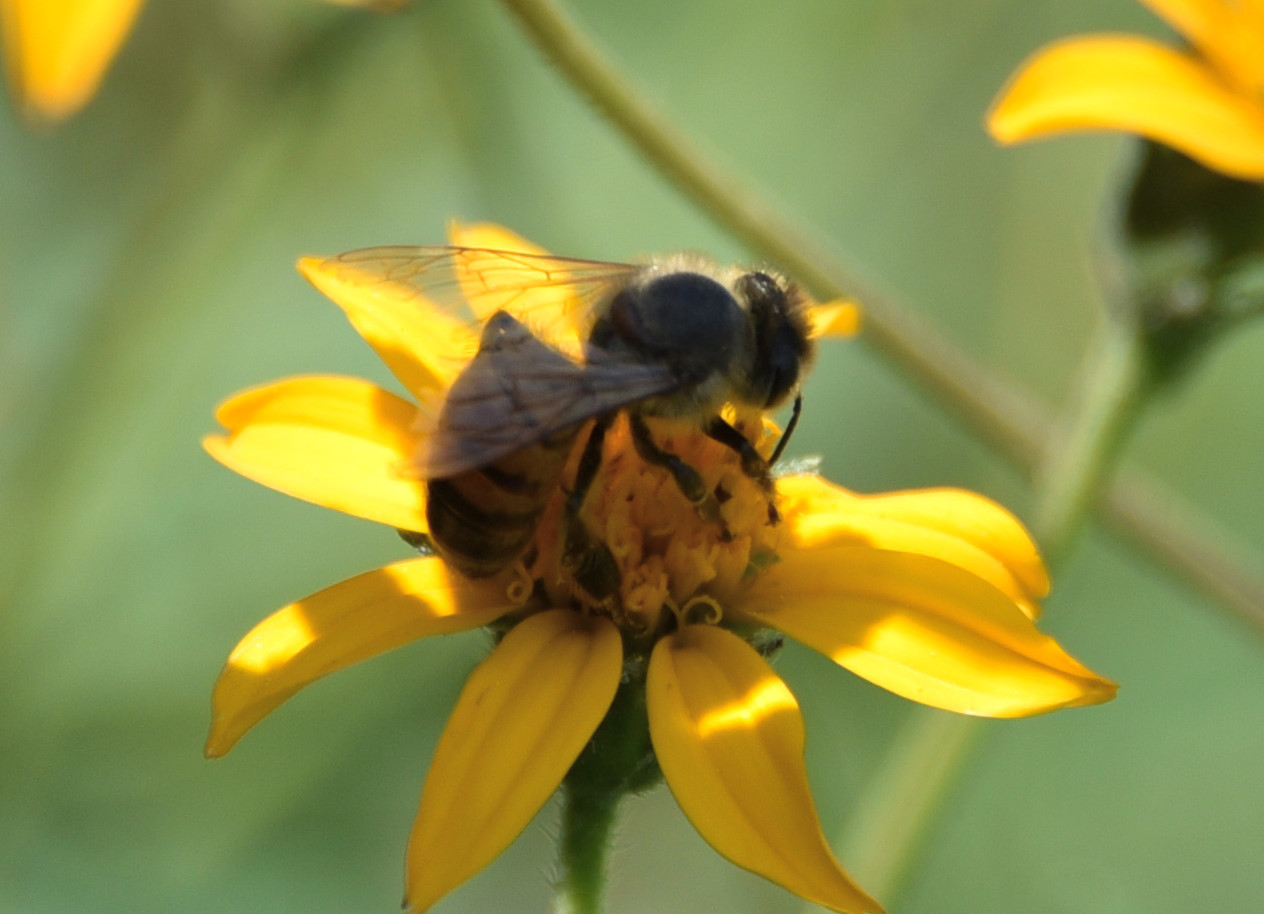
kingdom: Animalia
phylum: Arthropoda
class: Insecta
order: Hymenoptera
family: Apidae
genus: Apis
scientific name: Apis mellifera
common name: Honey bee
